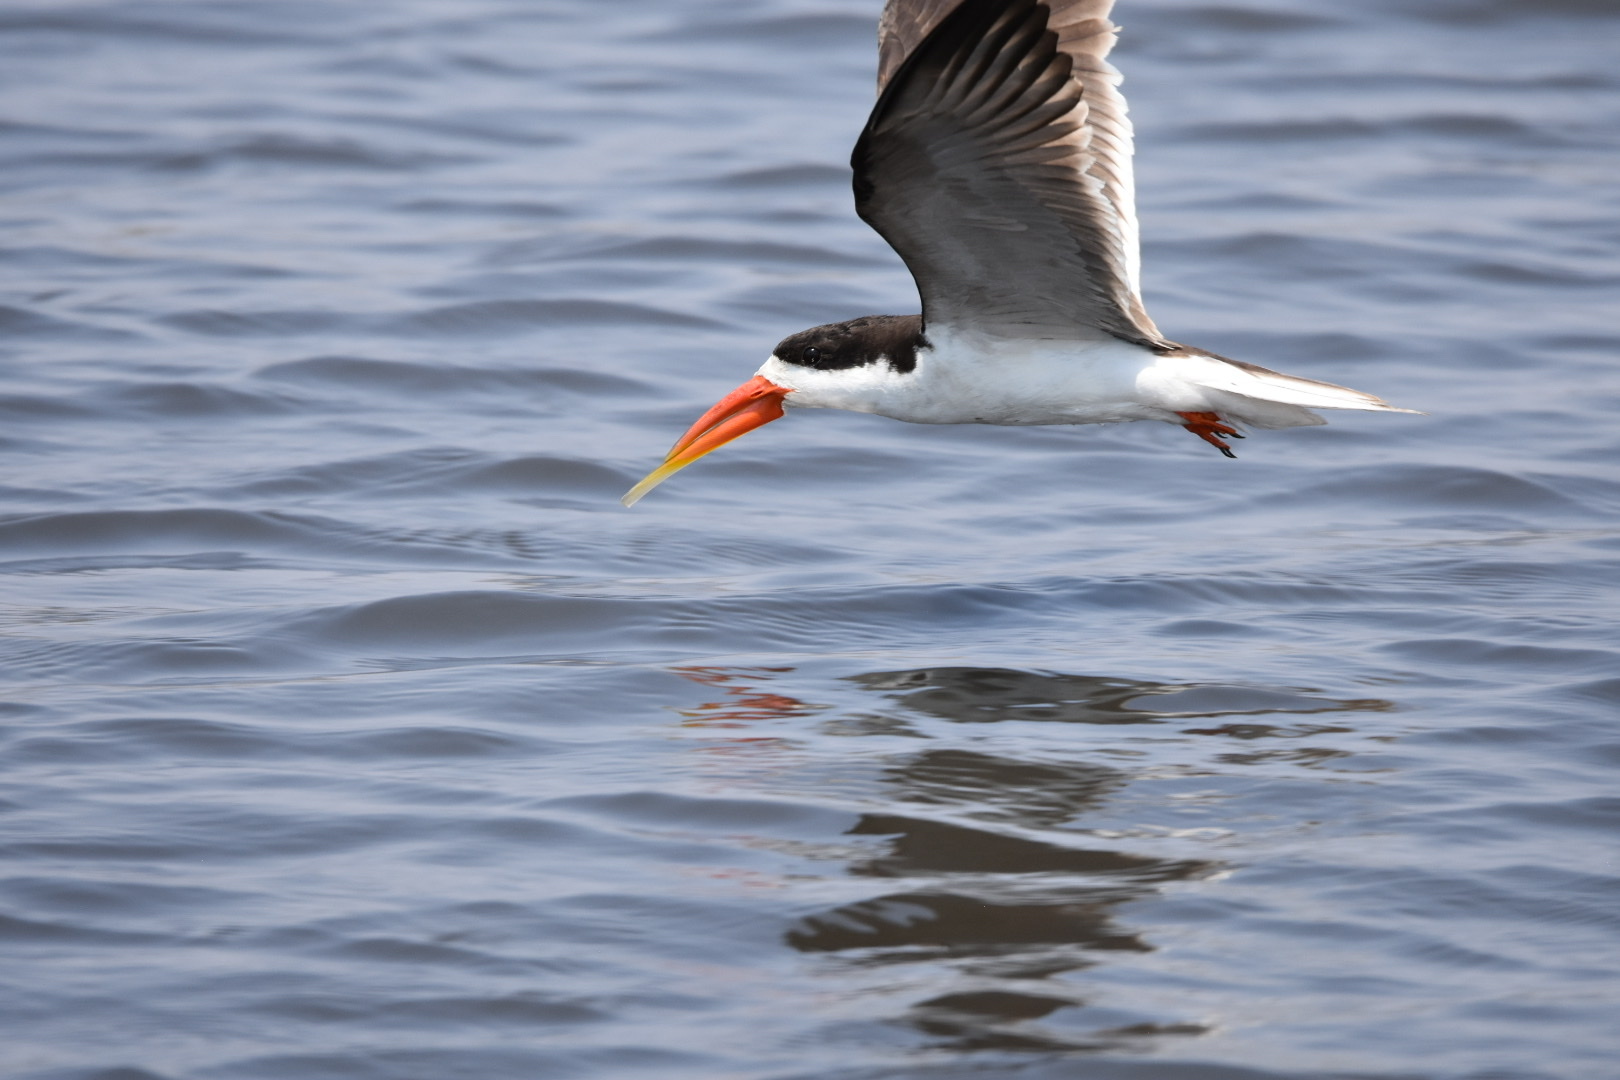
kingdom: Animalia
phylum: Chordata
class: Aves
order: Charadriiformes
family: Laridae
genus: Rynchops
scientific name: Rynchops flavirostris
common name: African skimmer
